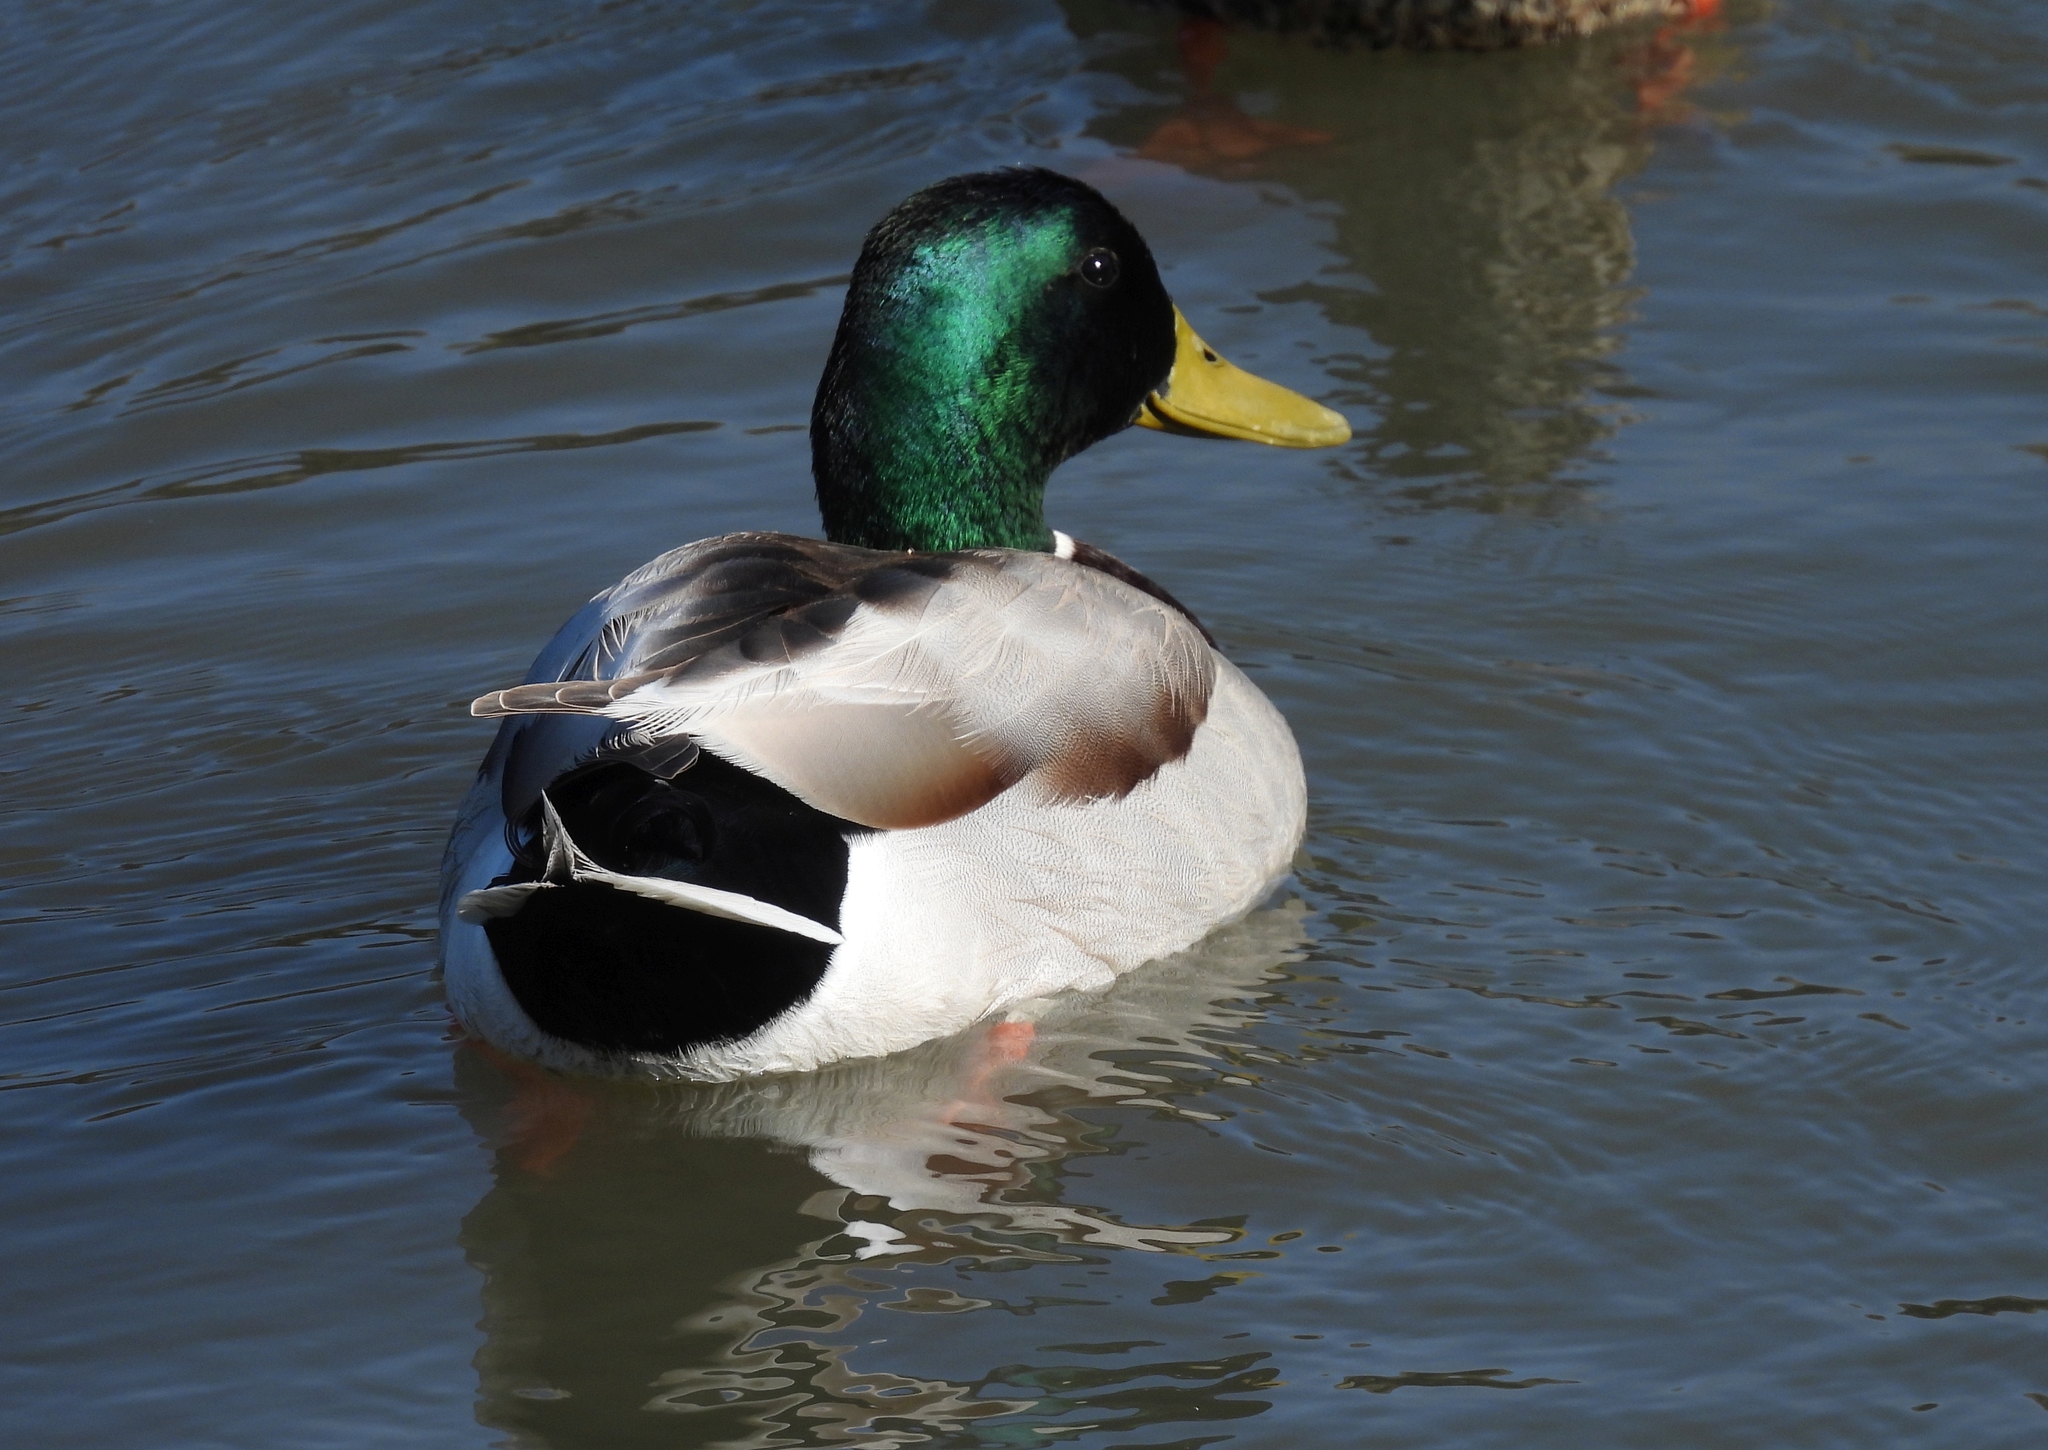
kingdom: Animalia
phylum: Chordata
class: Aves
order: Anseriformes
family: Anatidae
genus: Anas
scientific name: Anas platyrhynchos
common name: Mallard
